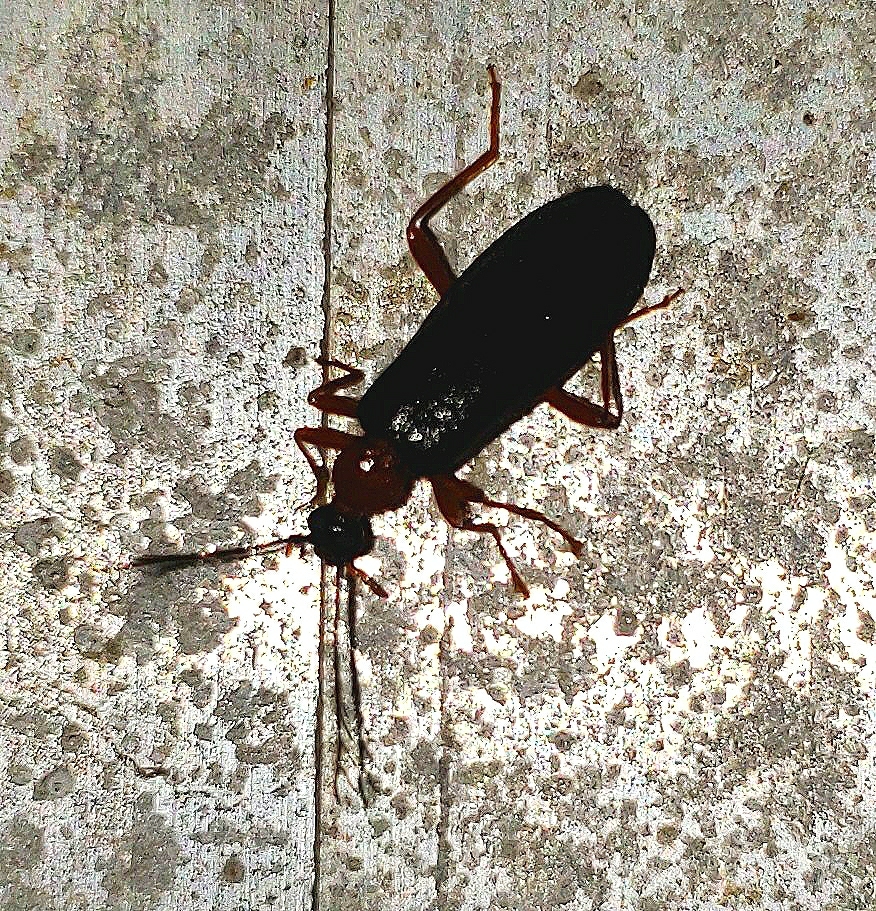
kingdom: Animalia
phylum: Arthropoda
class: Insecta
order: Coleoptera
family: Pyrochroidae
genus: Dendroides
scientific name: Dendroides canadensis
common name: Canada fire-colored beetle
